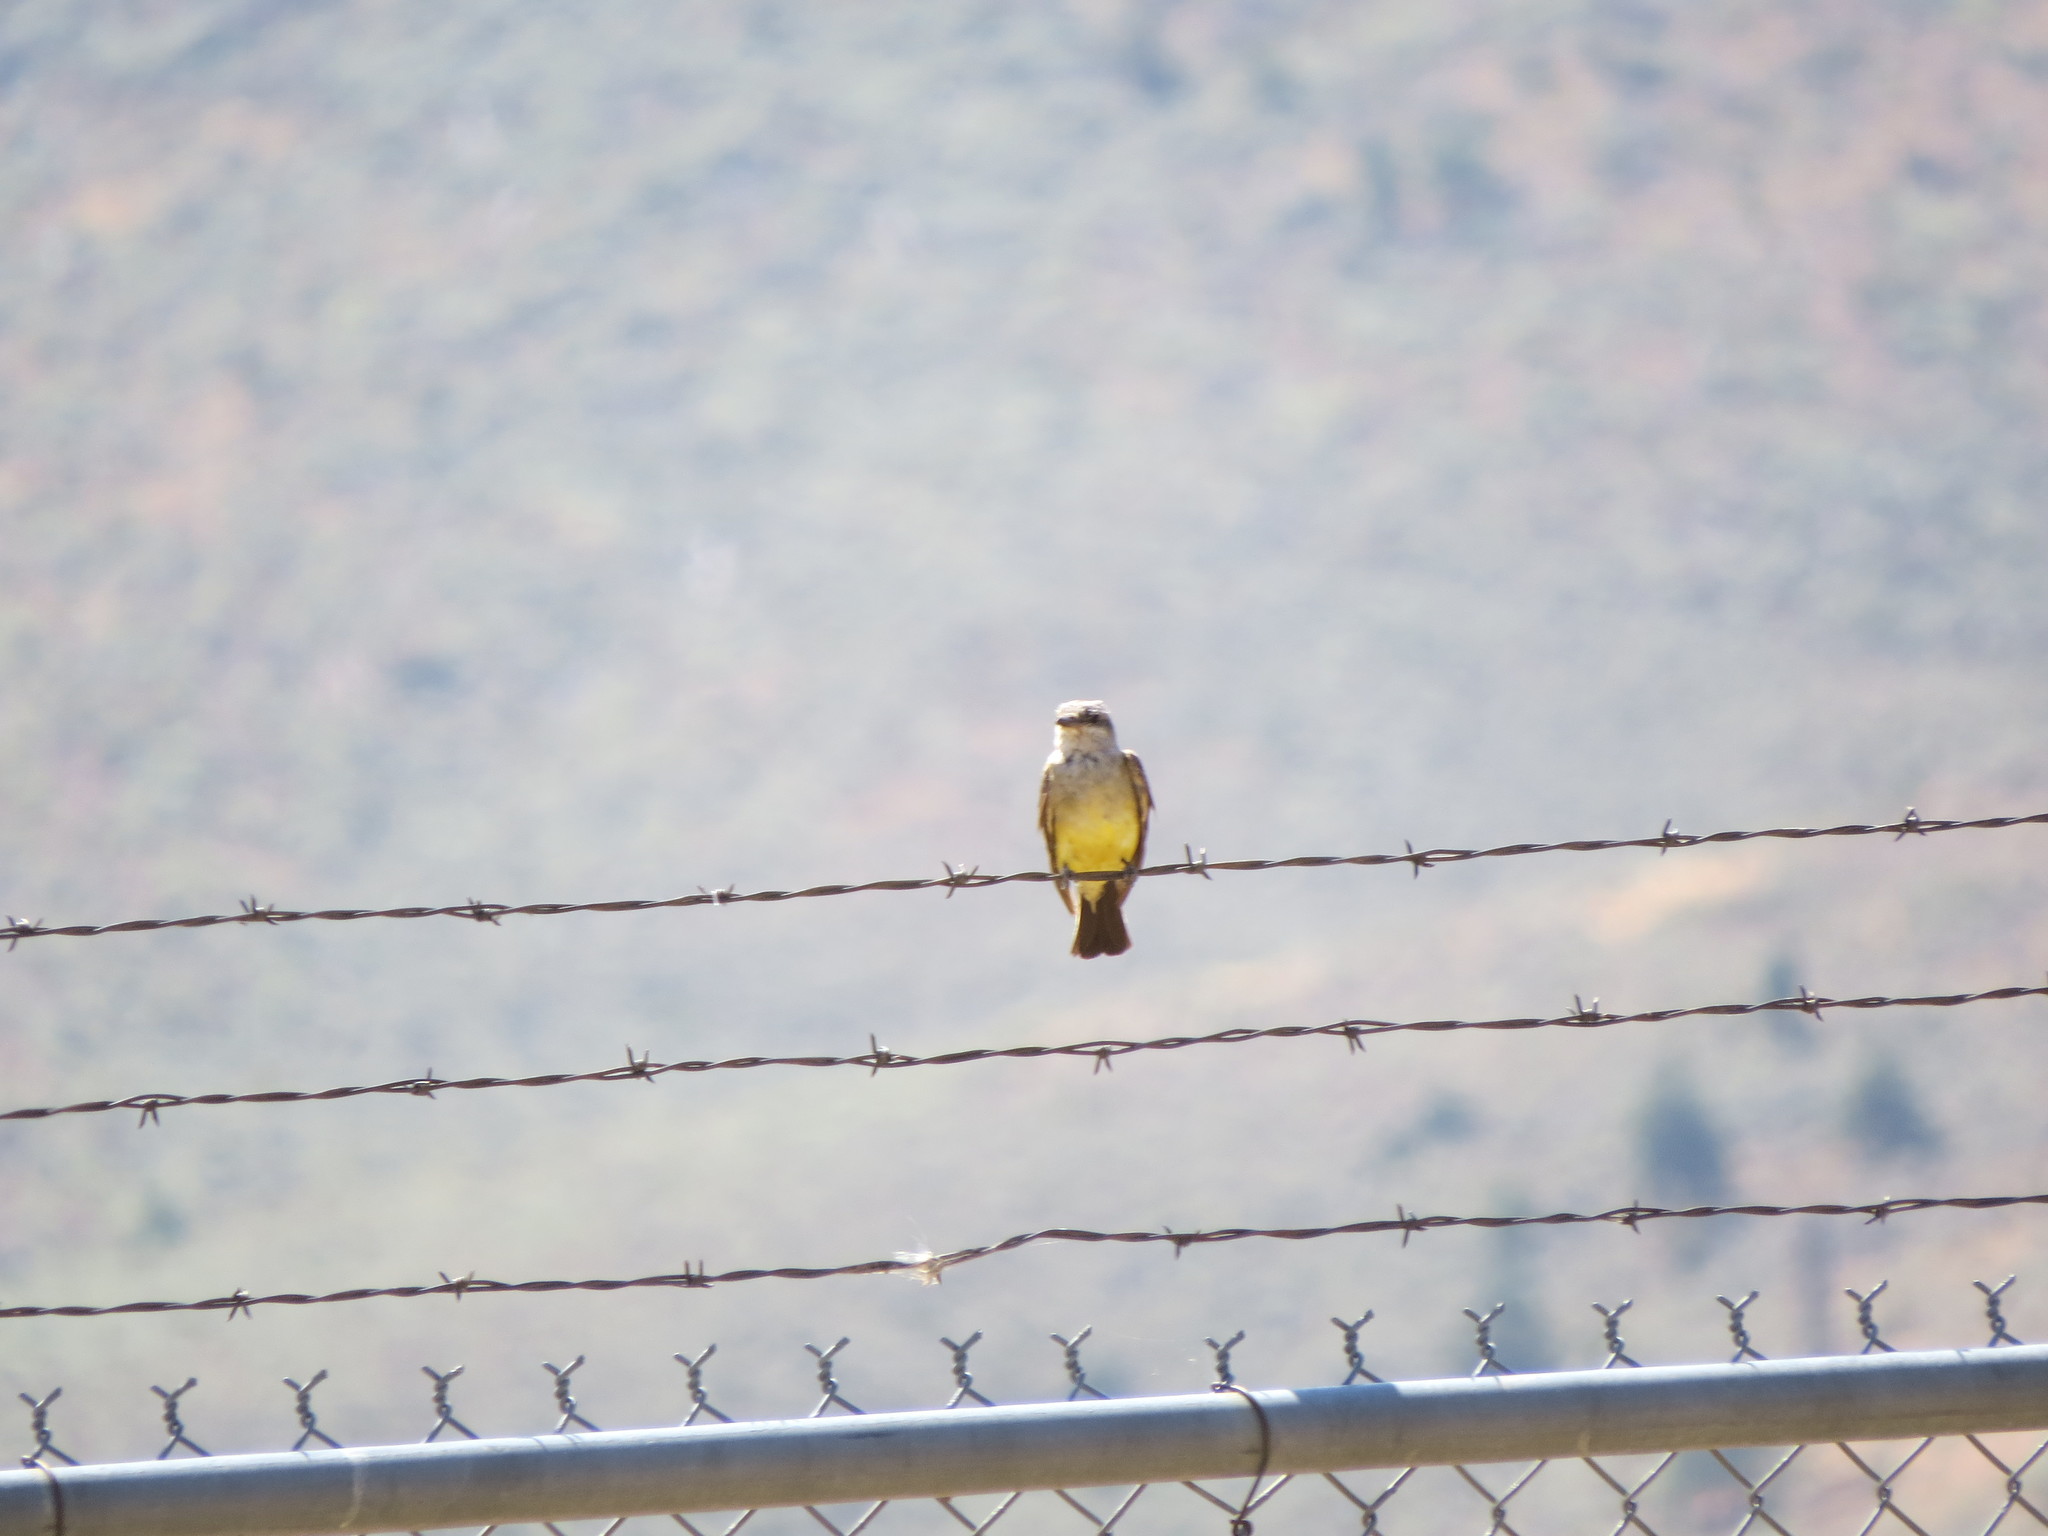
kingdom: Animalia
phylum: Chordata
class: Aves
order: Passeriformes
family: Tyrannidae
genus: Tyrannus
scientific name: Tyrannus verticalis
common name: Western kingbird
